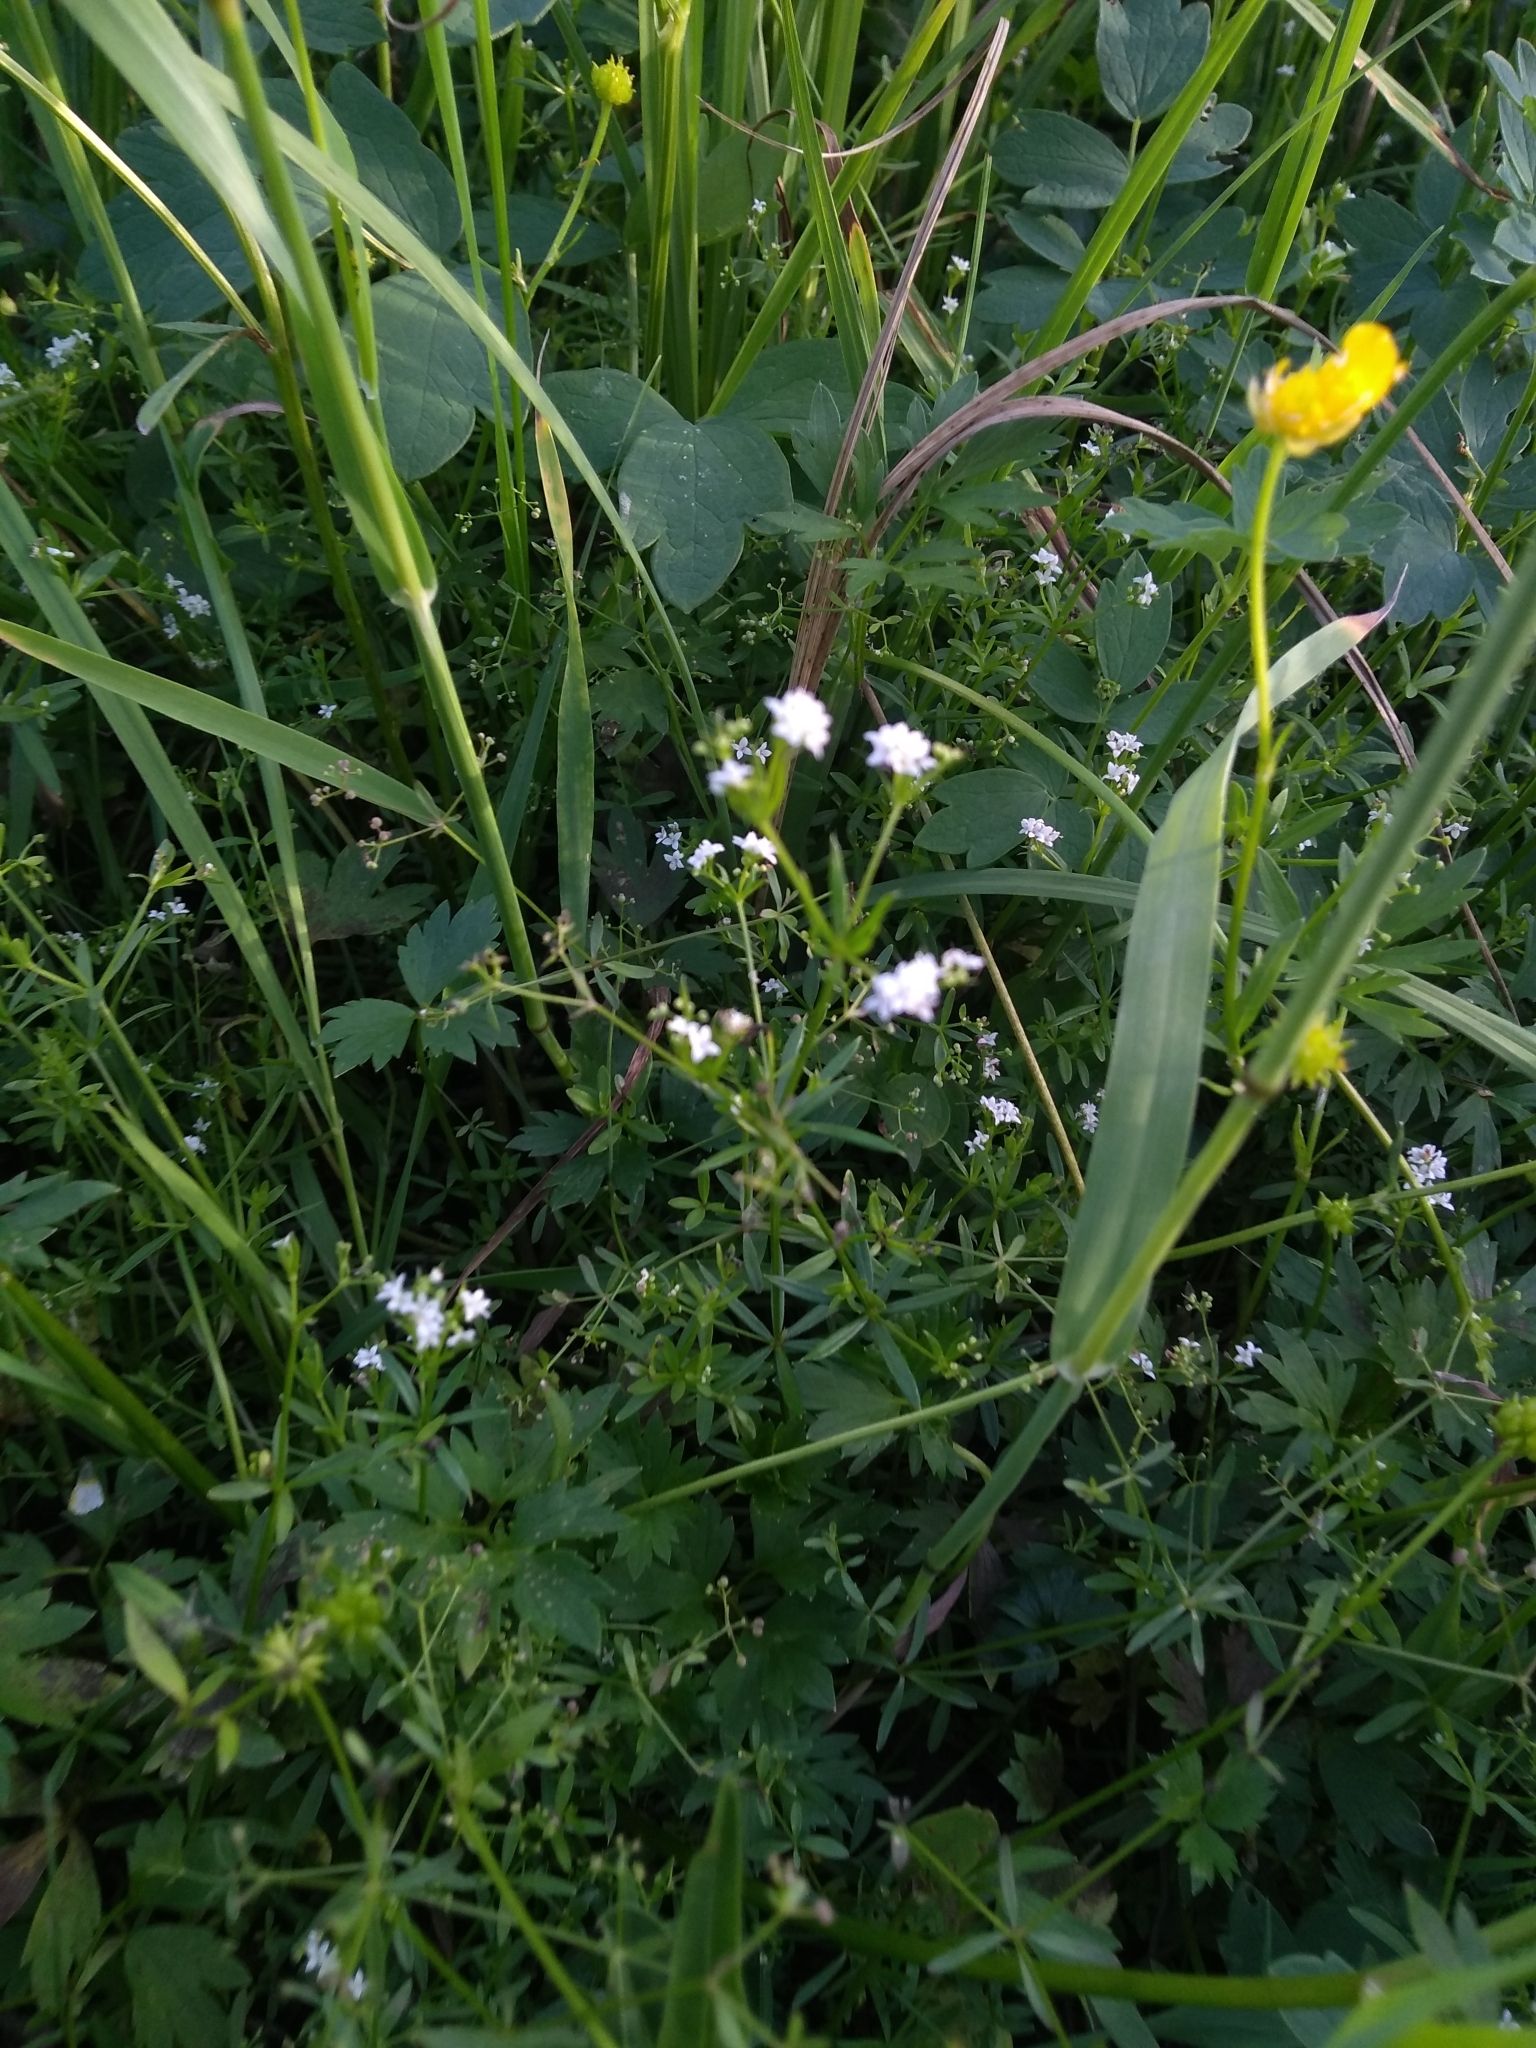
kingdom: Plantae
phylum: Tracheophyta
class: Magnoliopsida
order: Gentianales
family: Rubiaceae
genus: Galium
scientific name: Galium album
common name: White bedstraw
